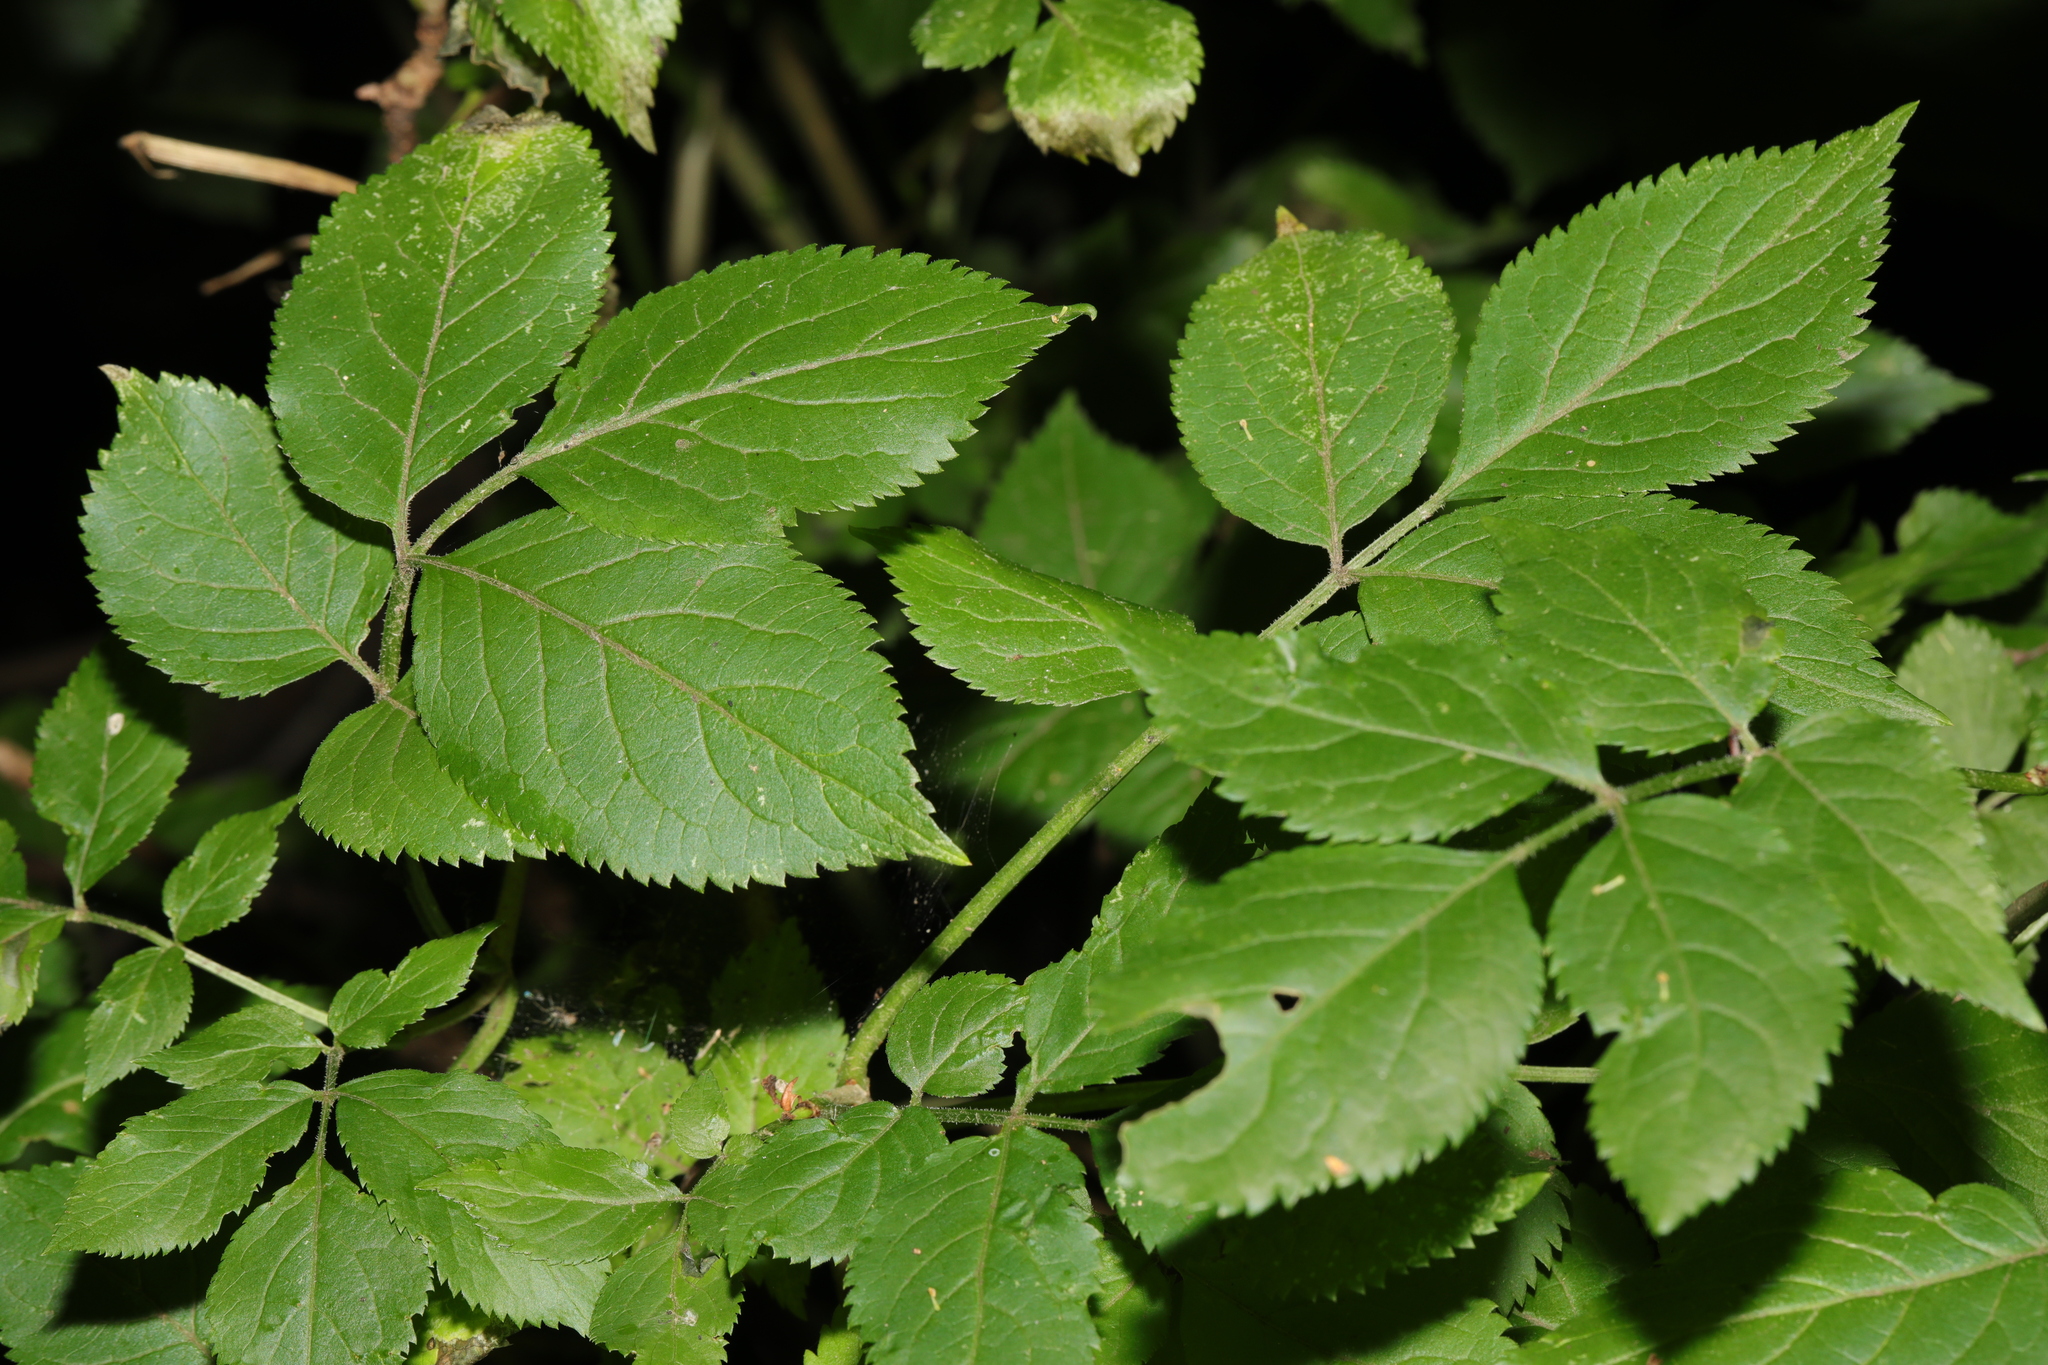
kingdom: Plantae
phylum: Tracheophyta
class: Magnoliopsida
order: Dipsacales
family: Viburnaceae
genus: Sambucus
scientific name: Sambucus nigra
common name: Elder
